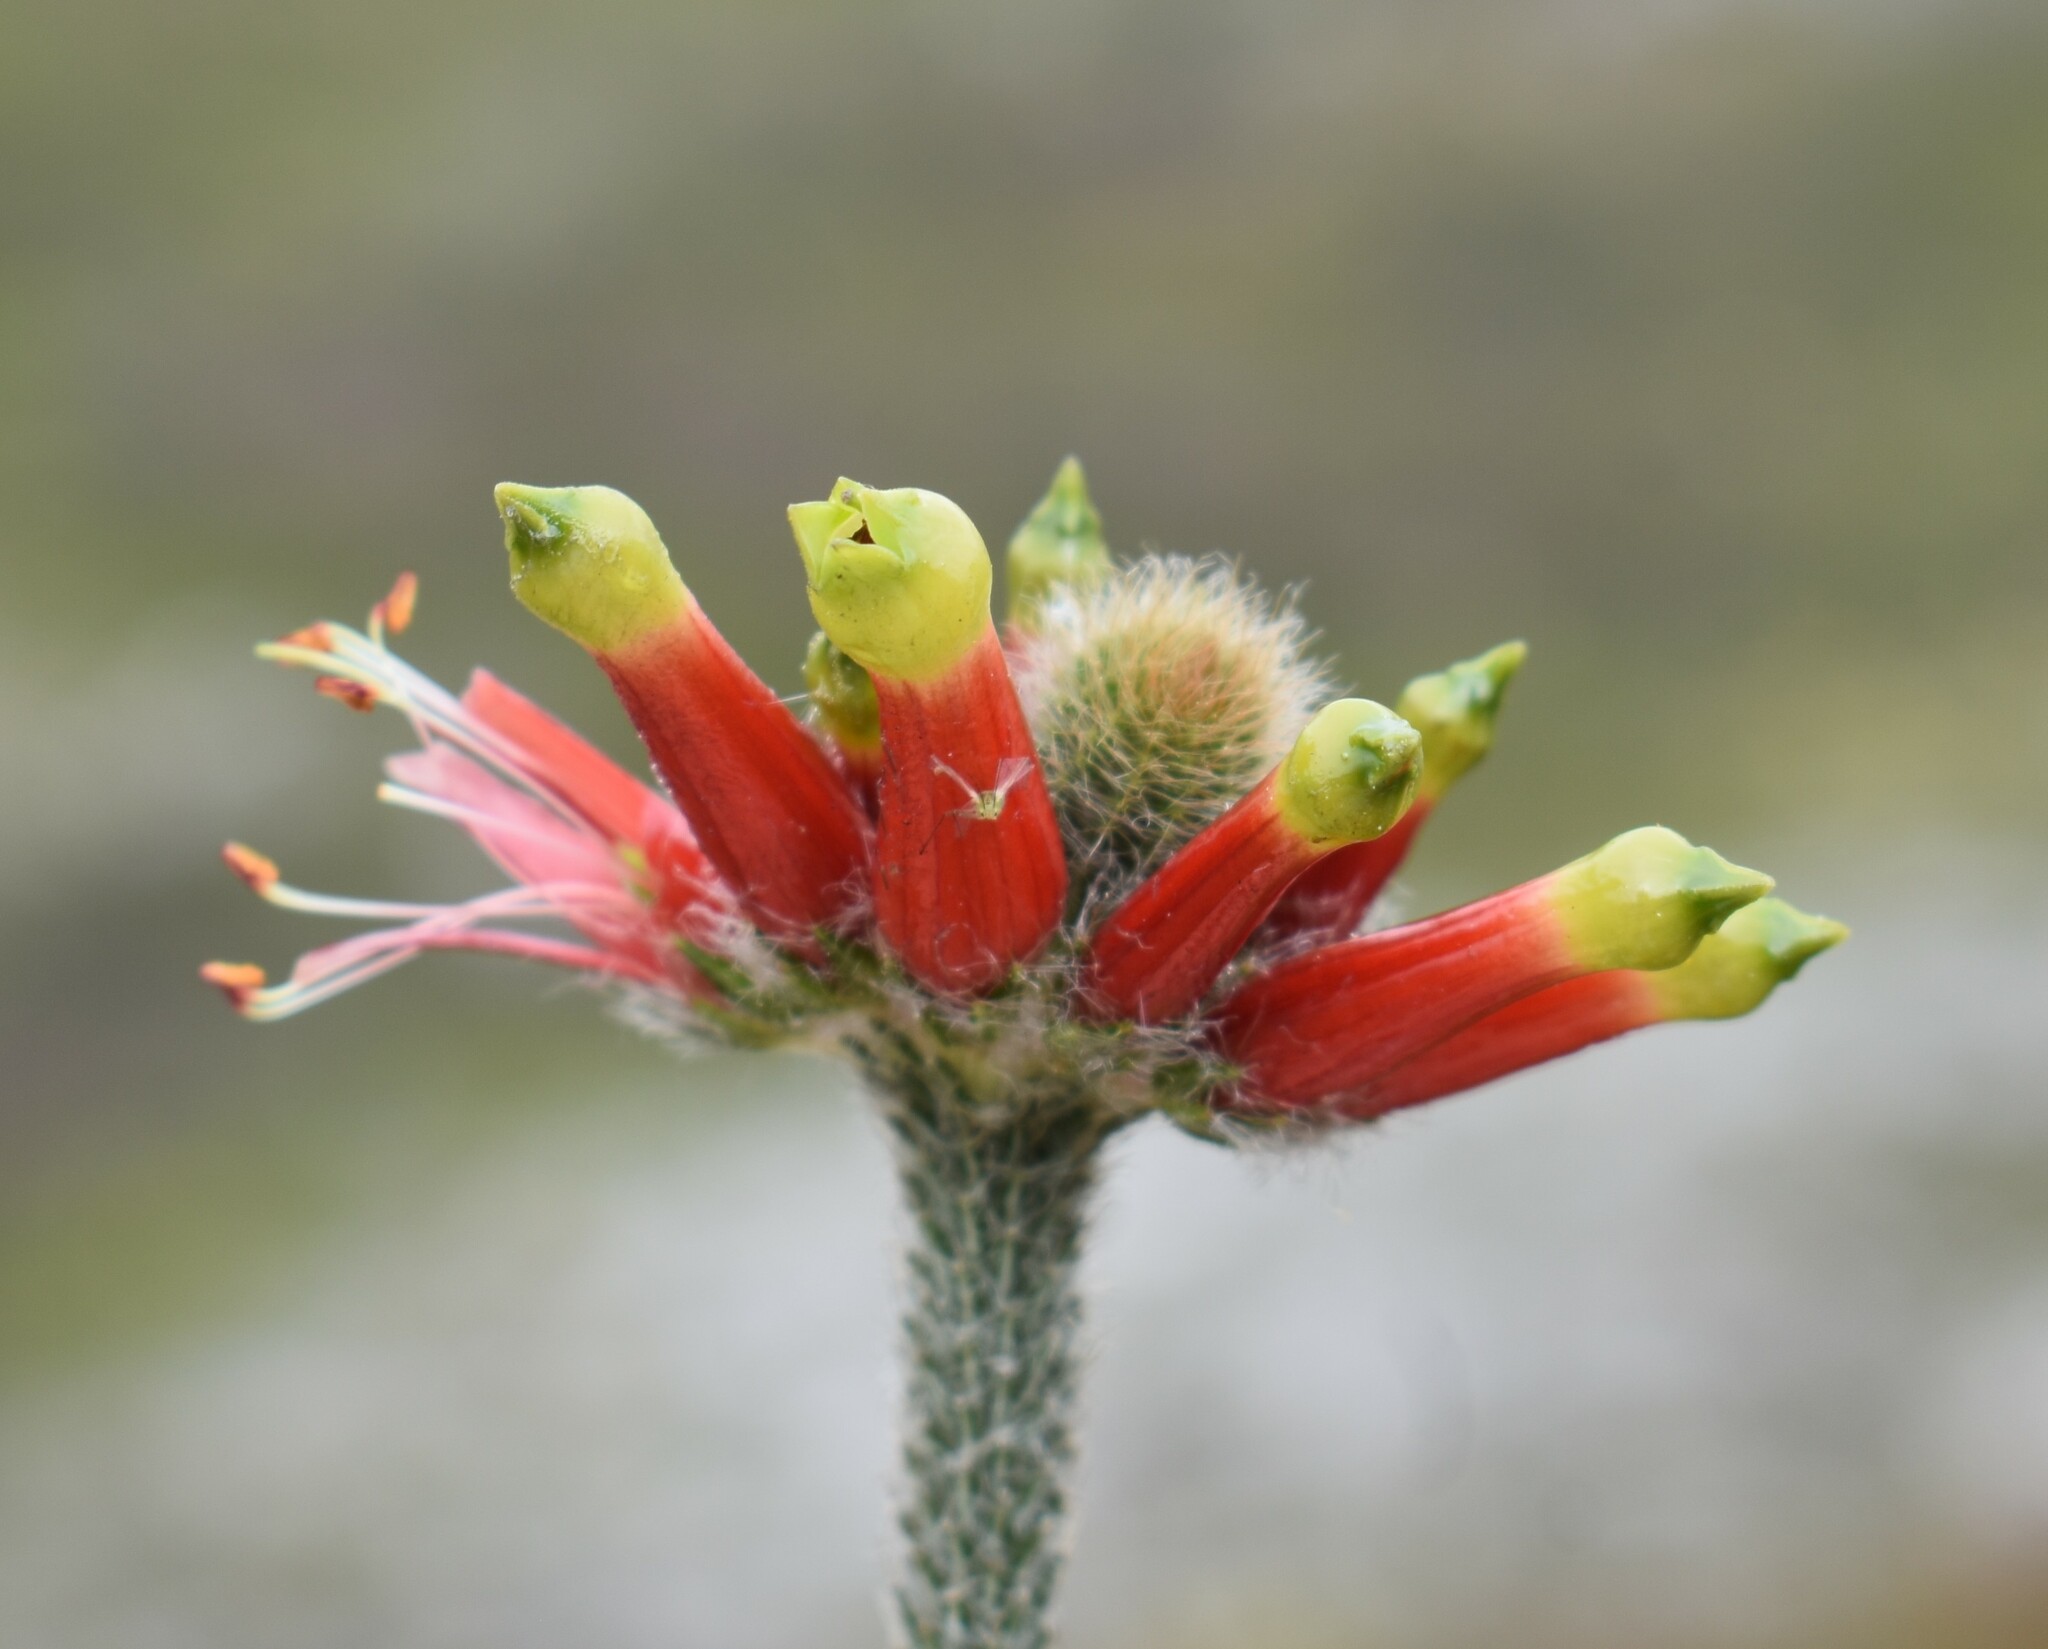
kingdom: Plantae
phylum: Tracheophyta
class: Magnoliopsida
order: Ericales
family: Ericaceae
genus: Erica
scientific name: Erica massonii
